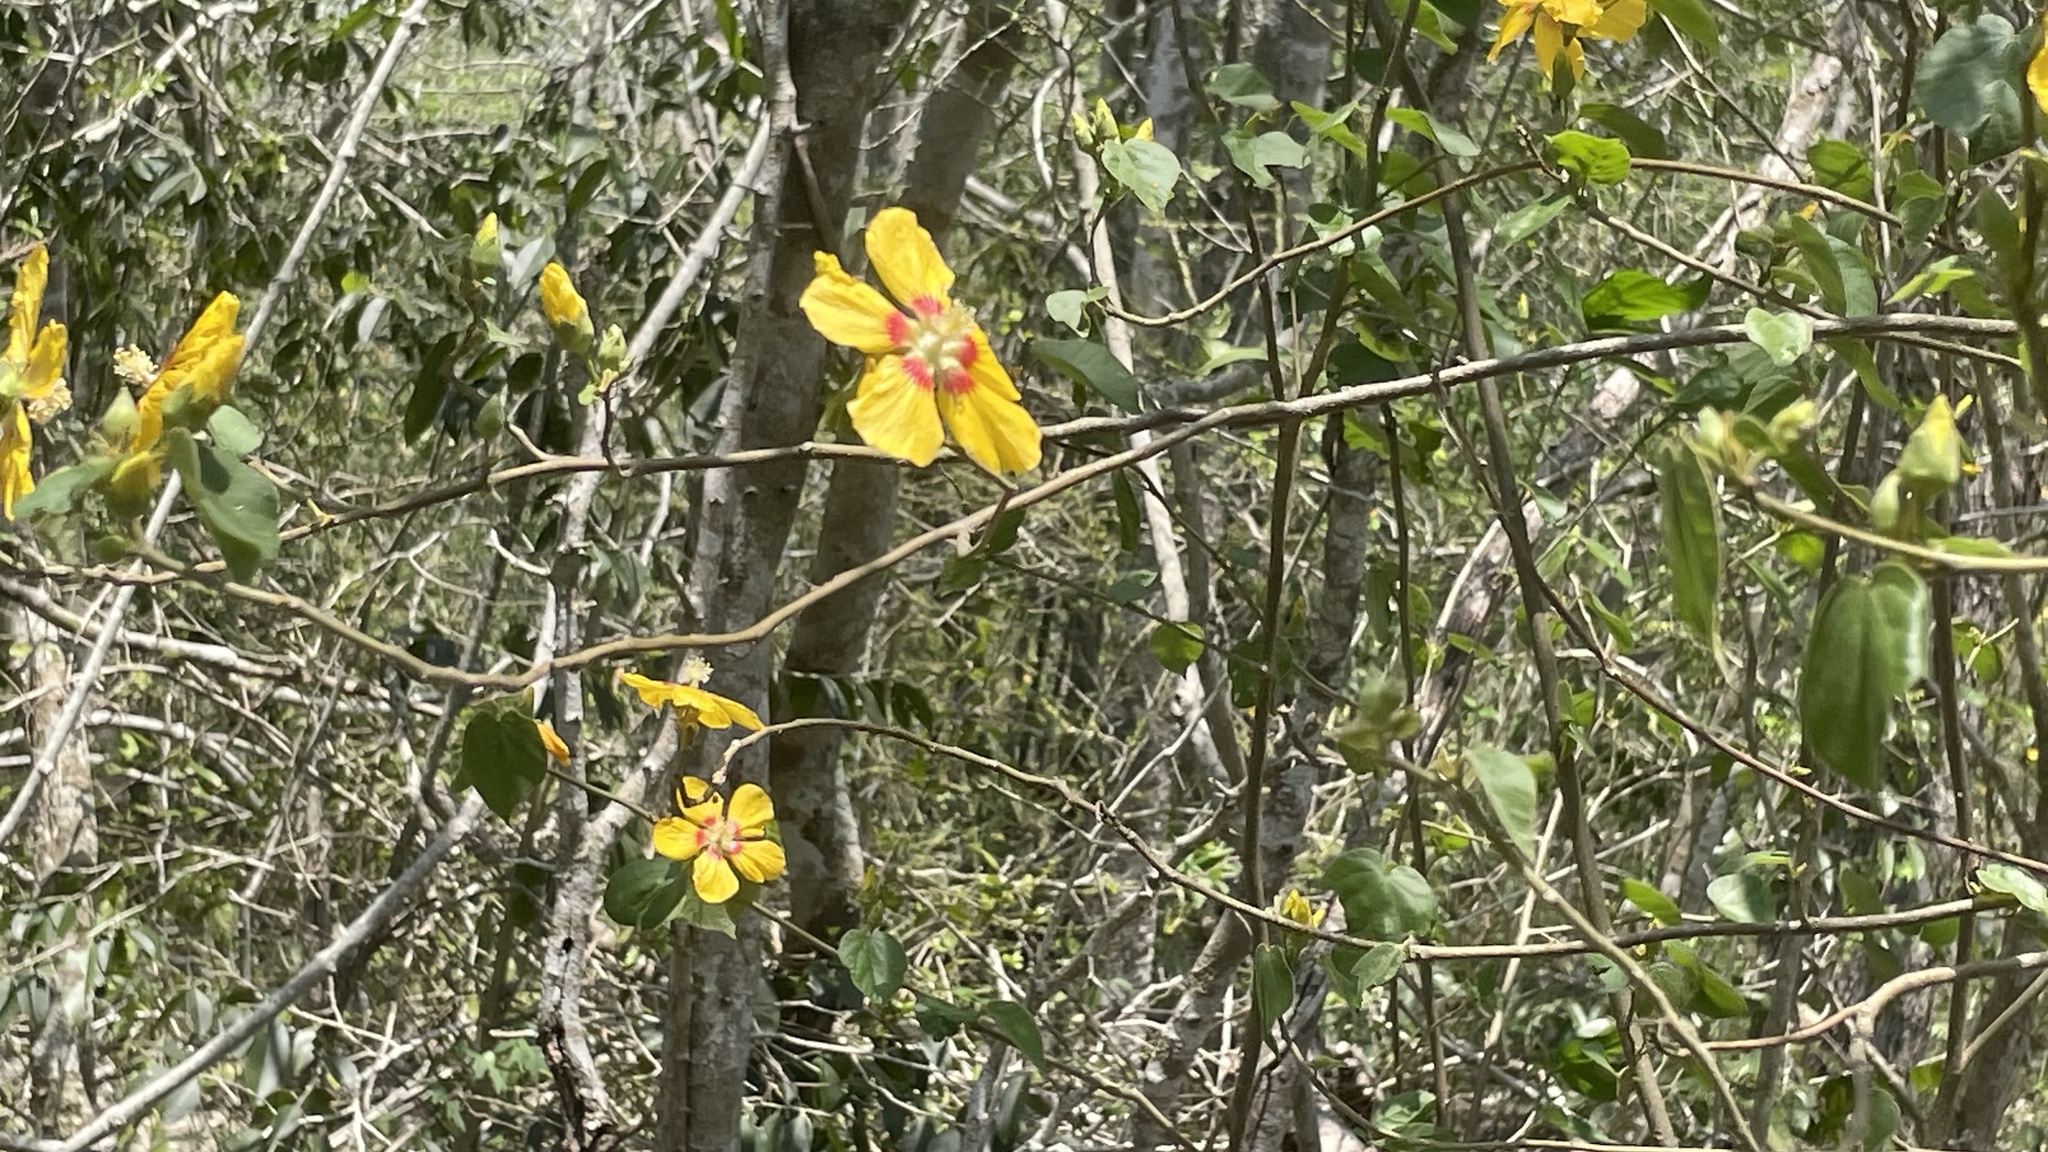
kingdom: Plantae
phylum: Tracheophyta
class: Magnoliopsida
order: Malvales
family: Malvaceae
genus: Bakeridesia
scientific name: Bakeridesia huastecana
